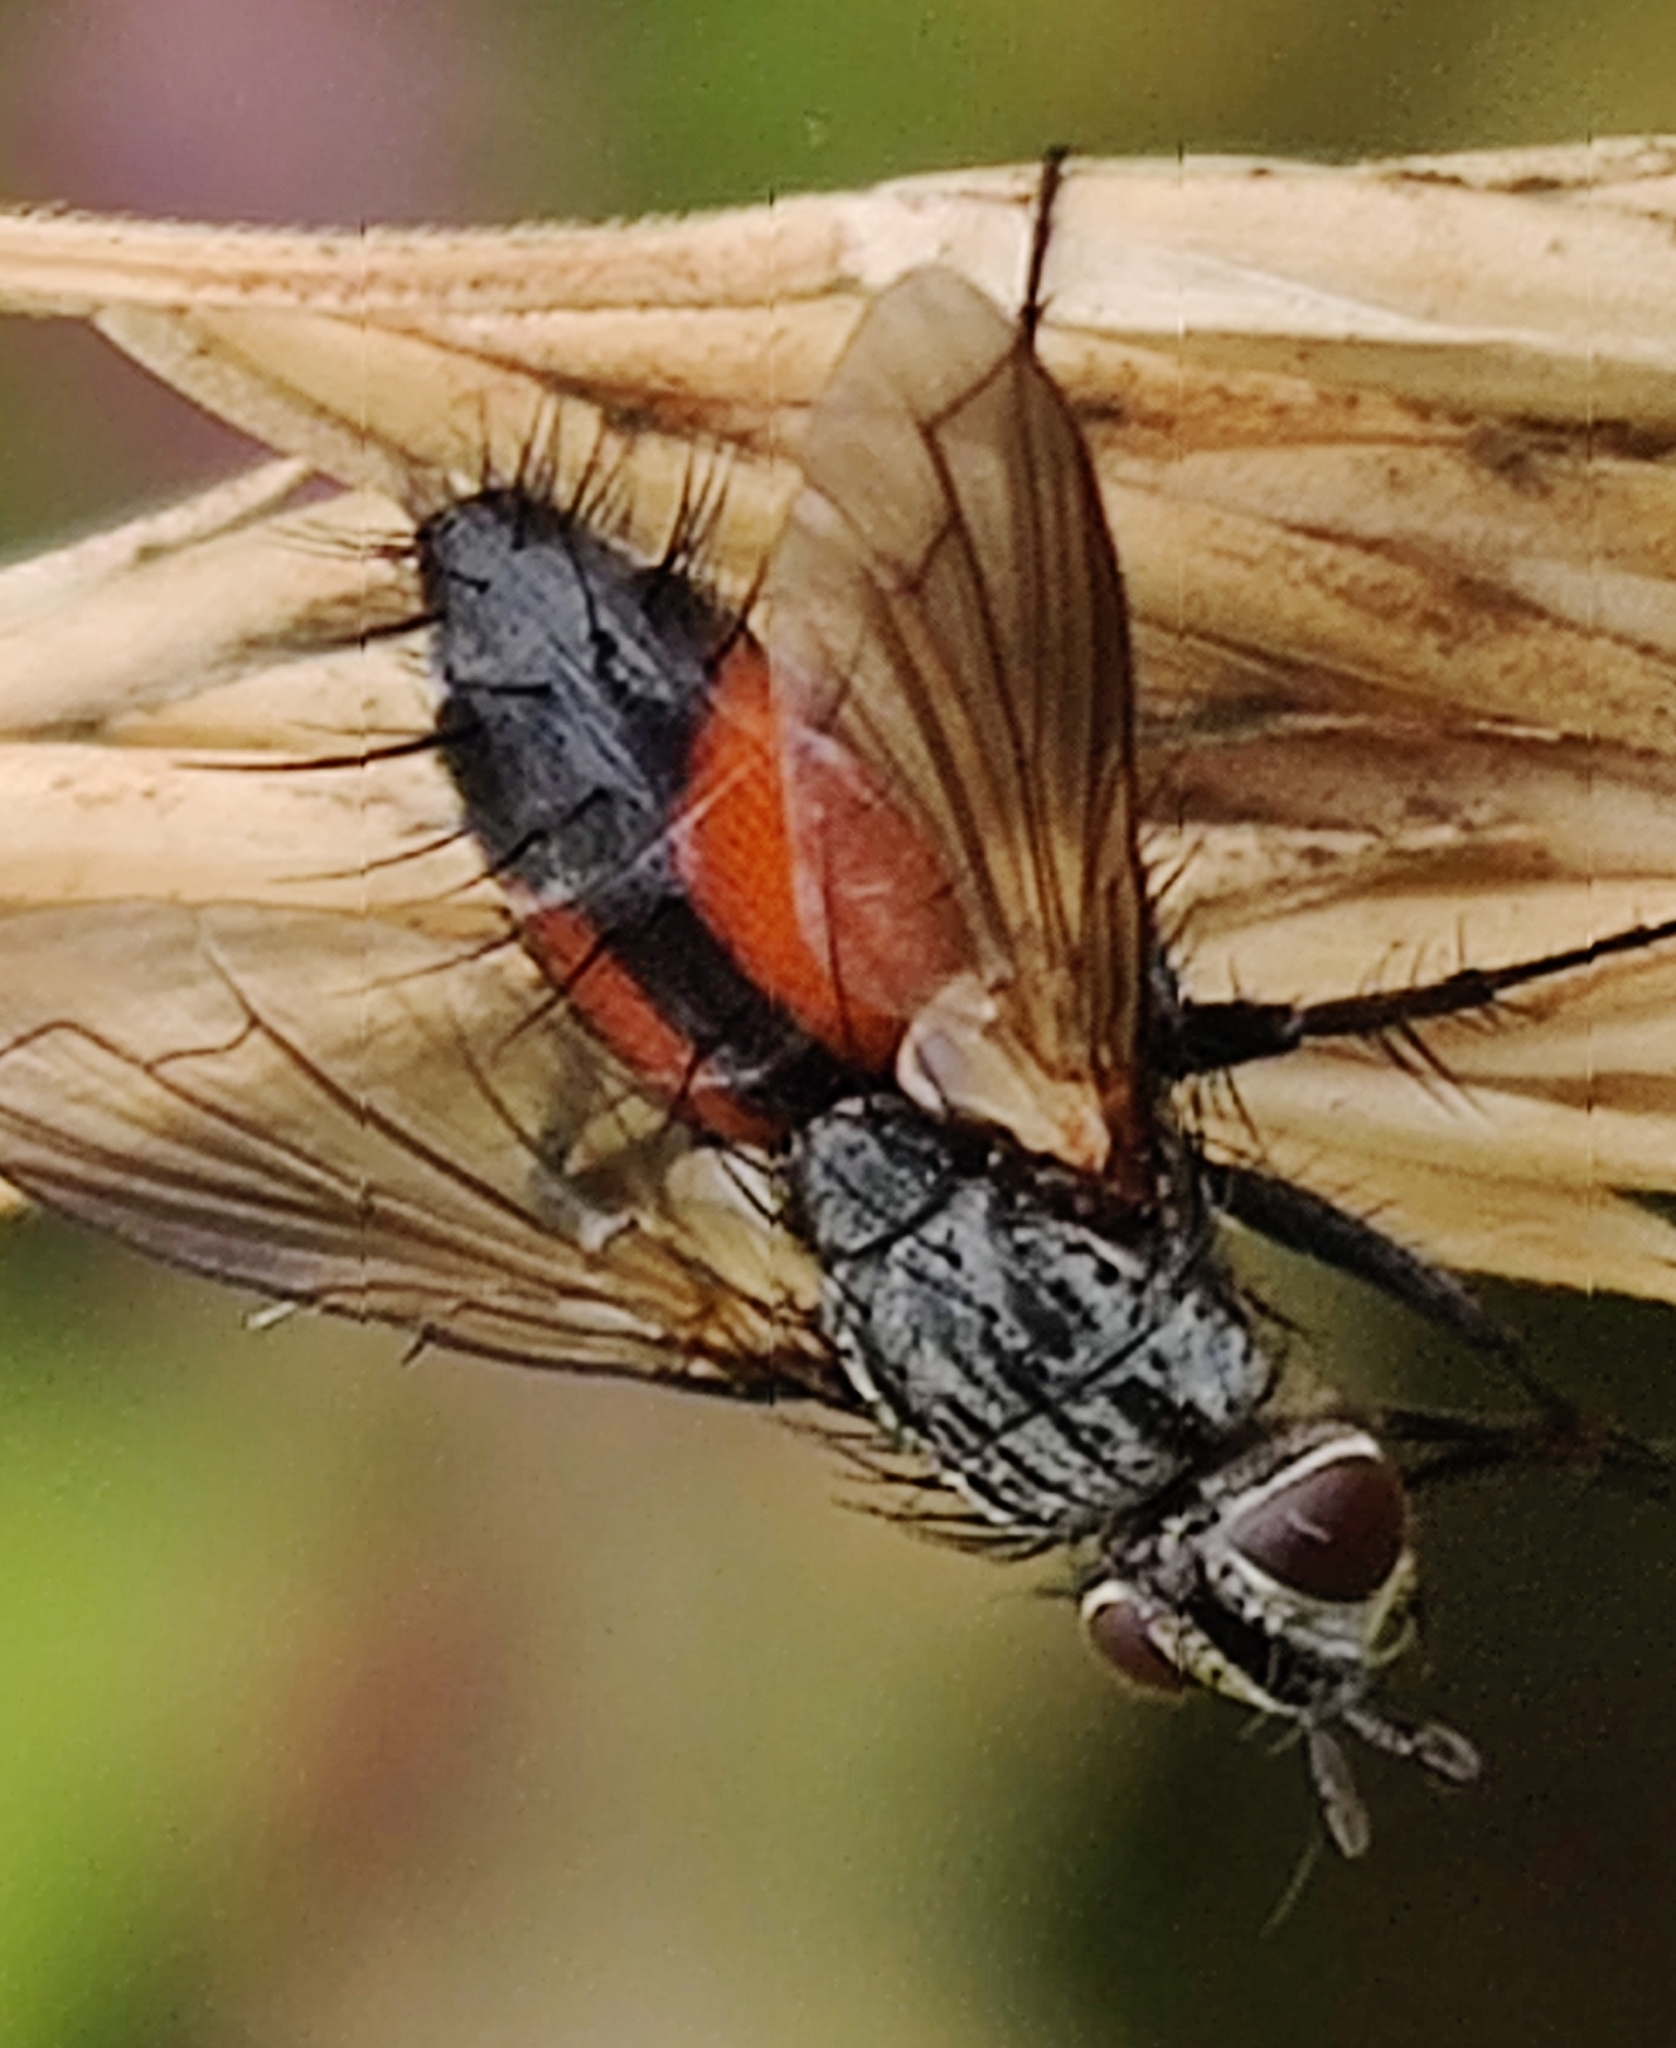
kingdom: Animalia
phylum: Arthropoda
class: Insecta
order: Diptera
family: Tachinidae
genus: Eriothrix
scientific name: Eriothrix rufomaculatus
